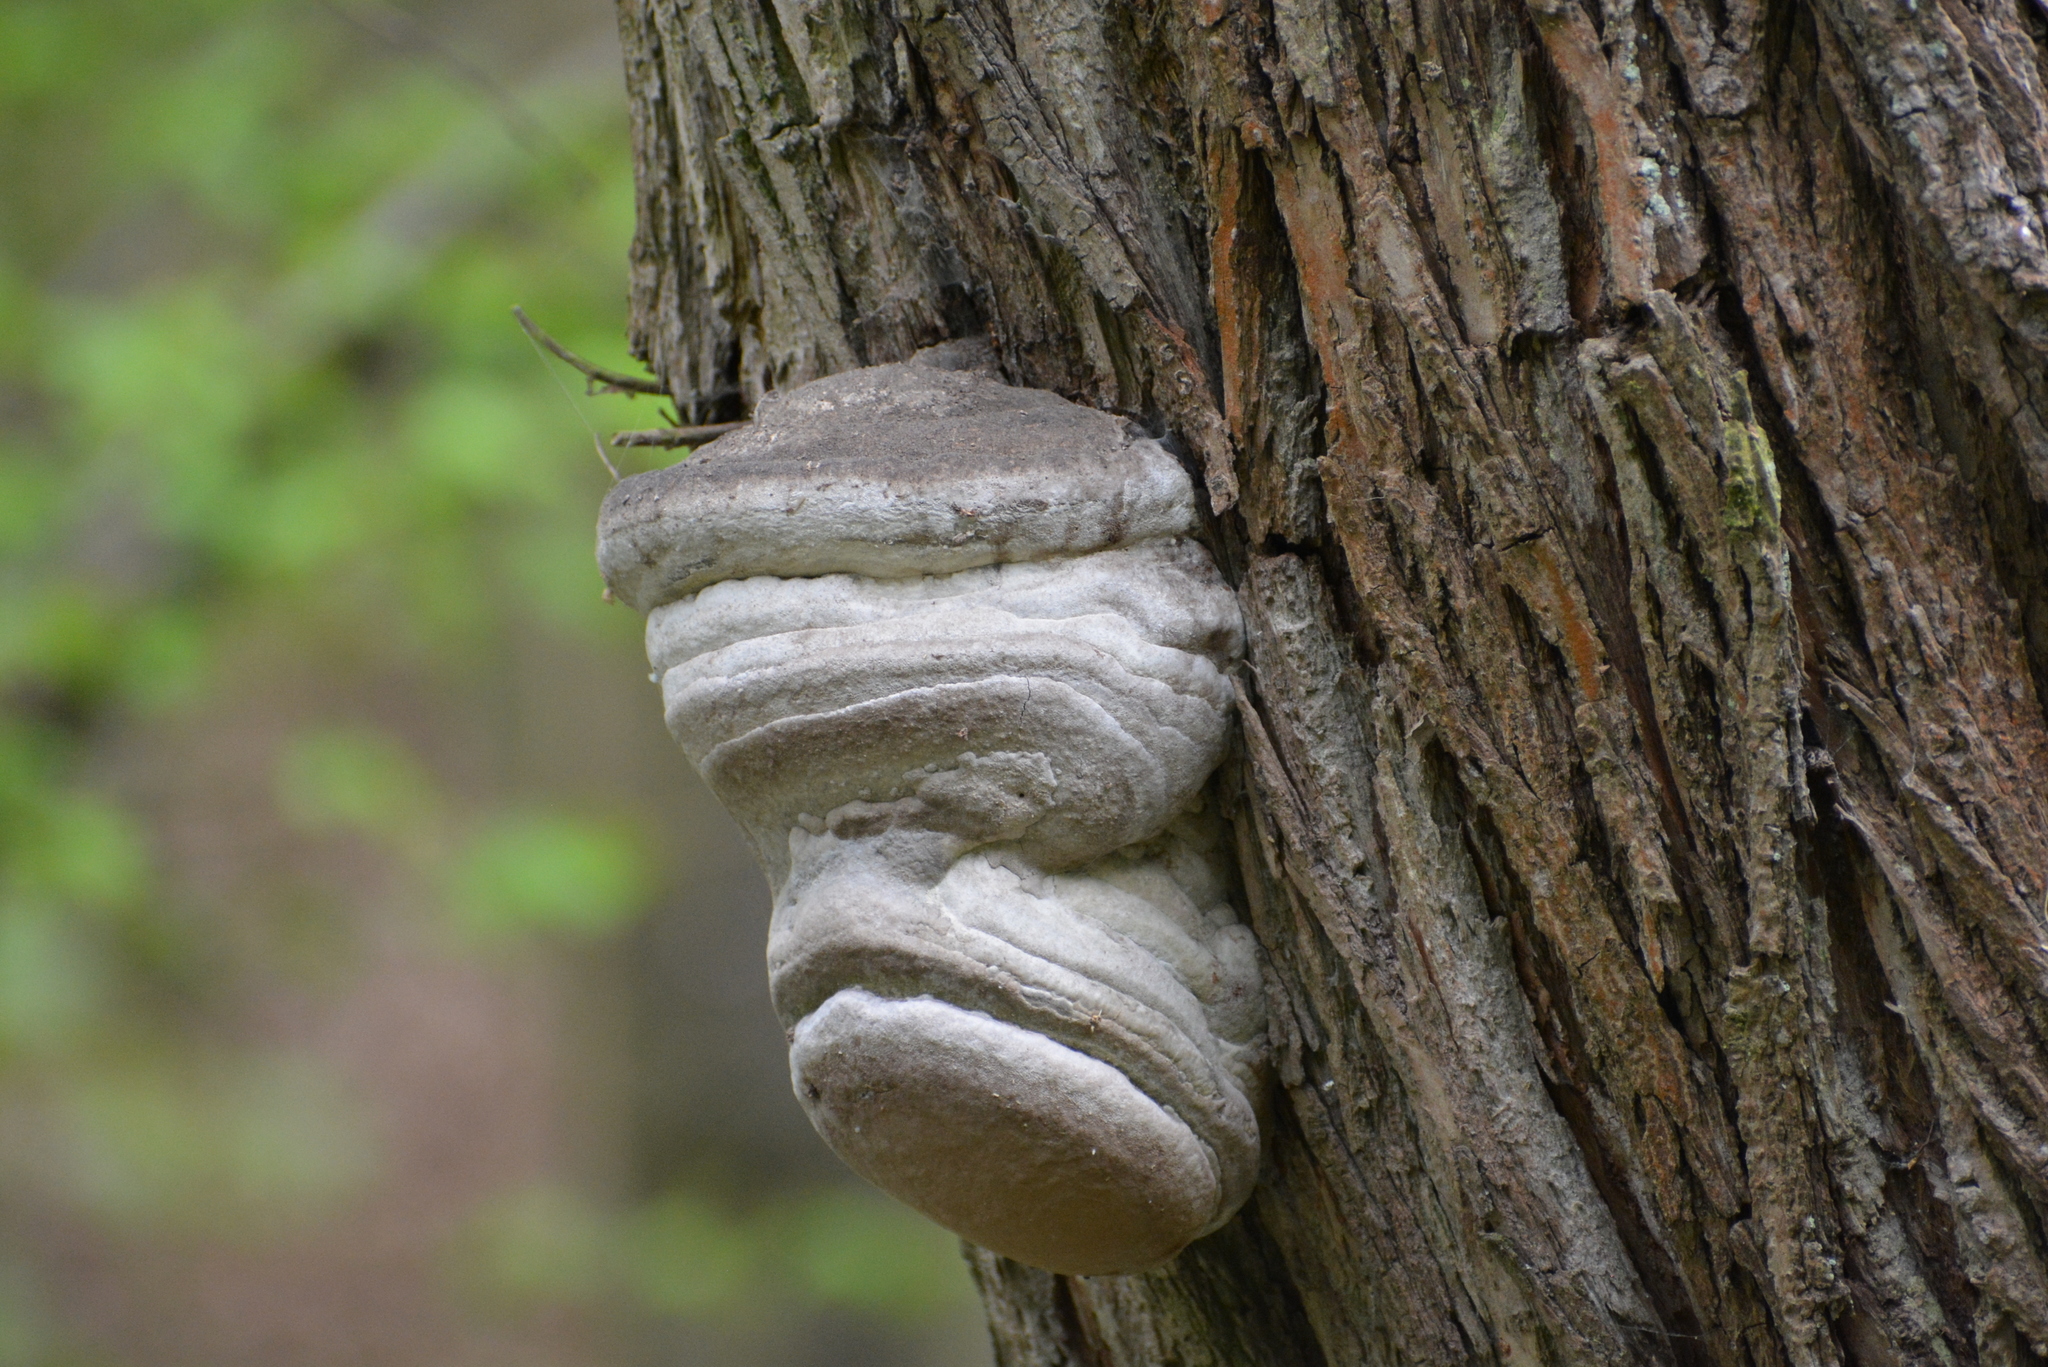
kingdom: Fungi
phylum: Basidiomycota
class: Agaricomycetes
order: Polyporales
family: Polyporaceae
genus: Fomes
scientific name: Fomes fomentarius
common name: Hoof fungus
